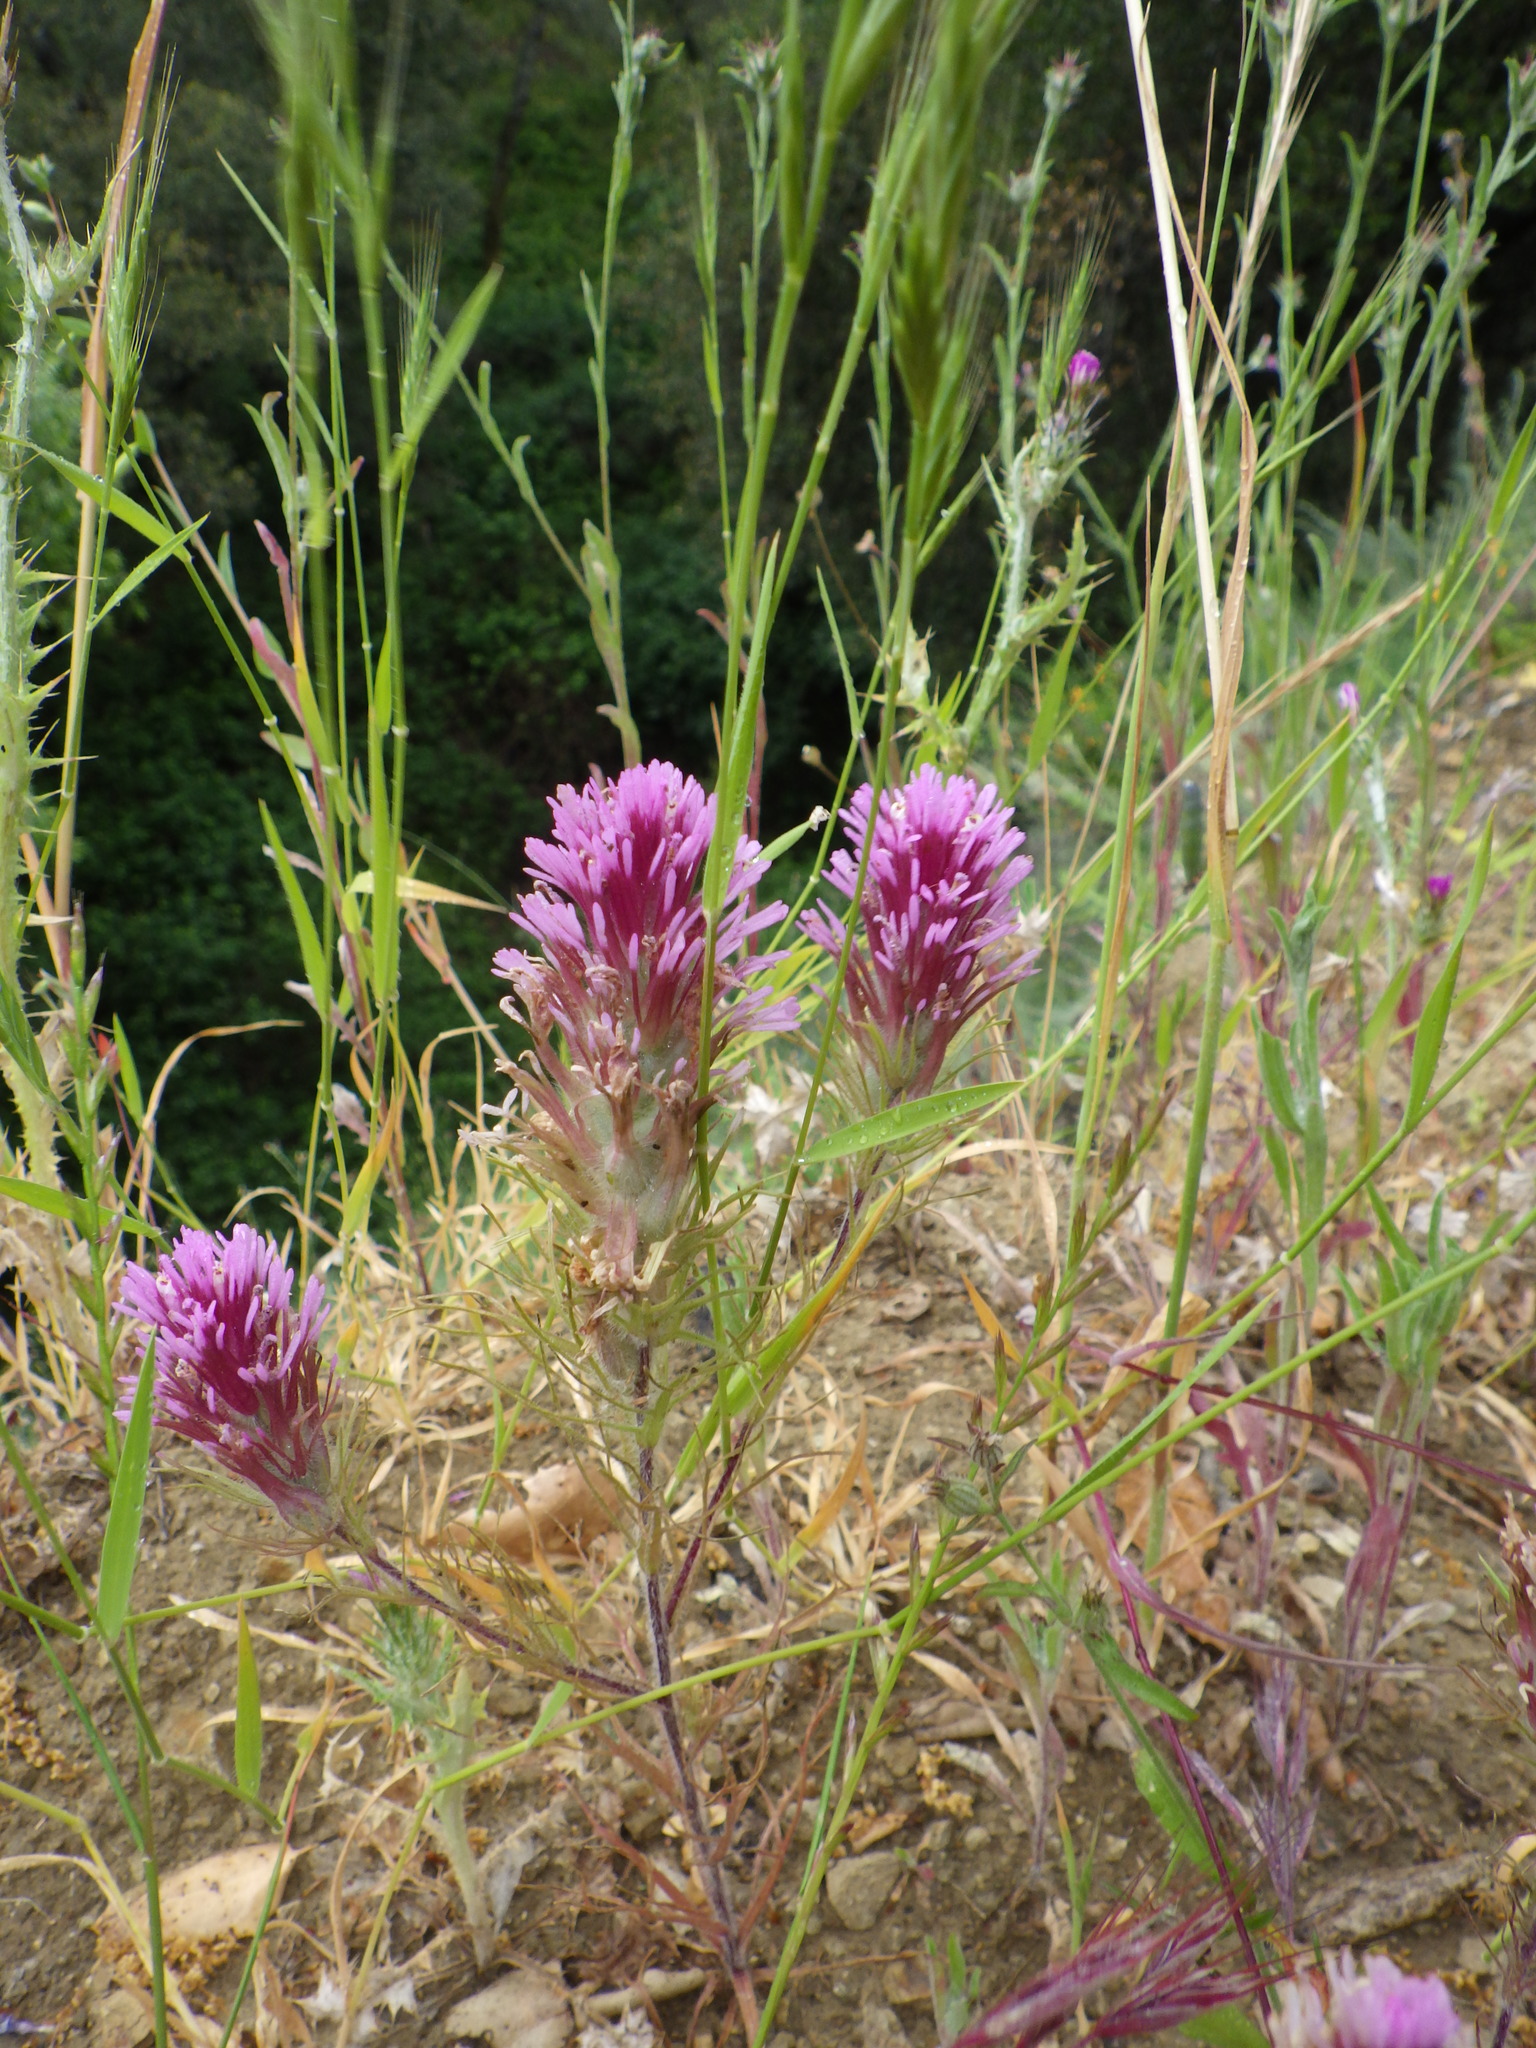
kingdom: Plantae
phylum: Tracheophyta
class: Magnoliopsida
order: Lamiales
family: Orobanchaceae
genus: Castilleja
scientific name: Castilleja exserta
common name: Purple owl-clover
